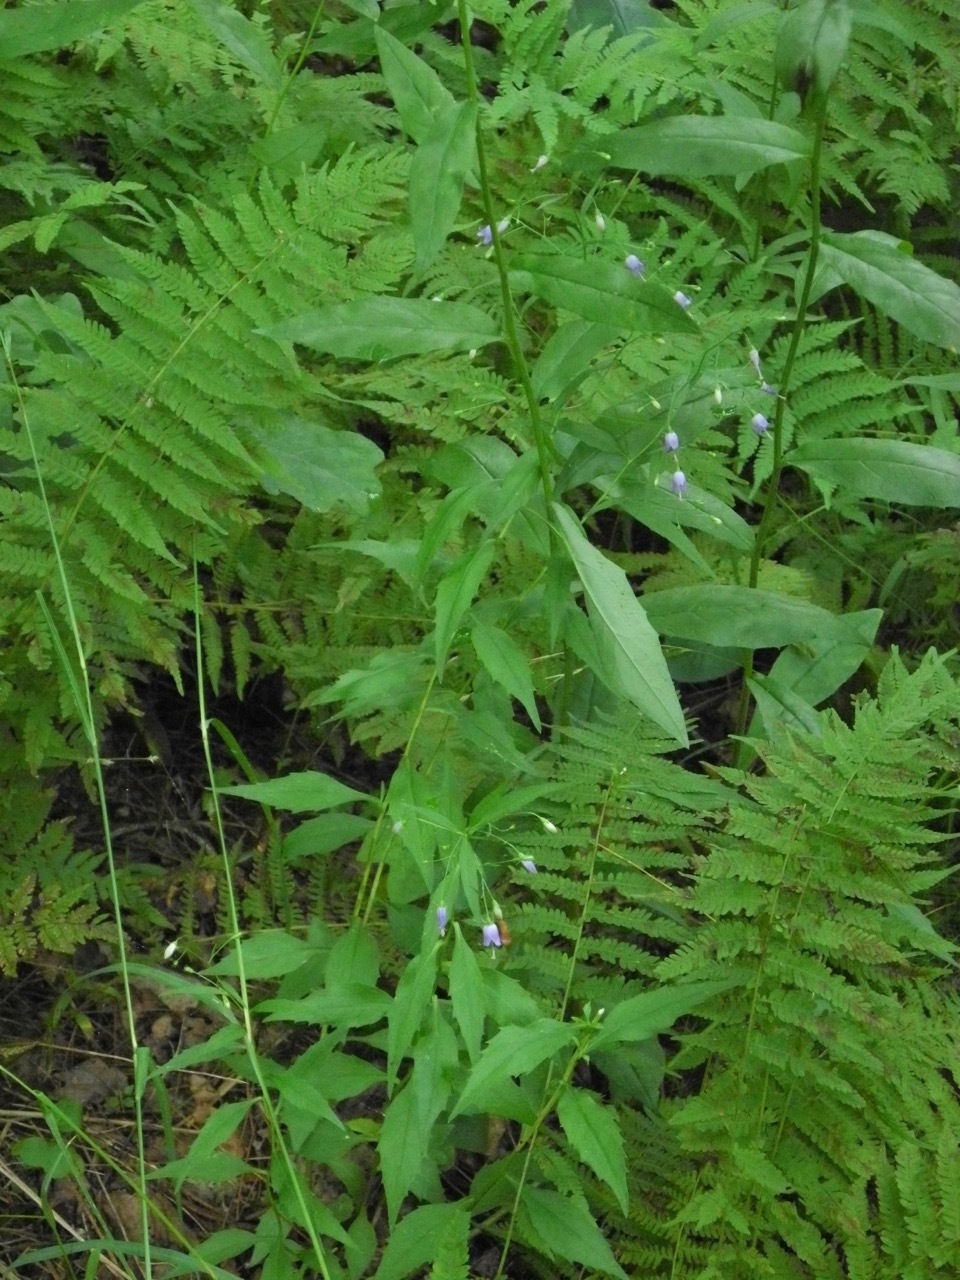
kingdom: Plantae
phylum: Tracheophyta
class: Magnoliopsida
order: Asterales
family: Campanulaceae
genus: Campanula
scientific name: Campanula divaricata
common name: Appalachian bellflower
